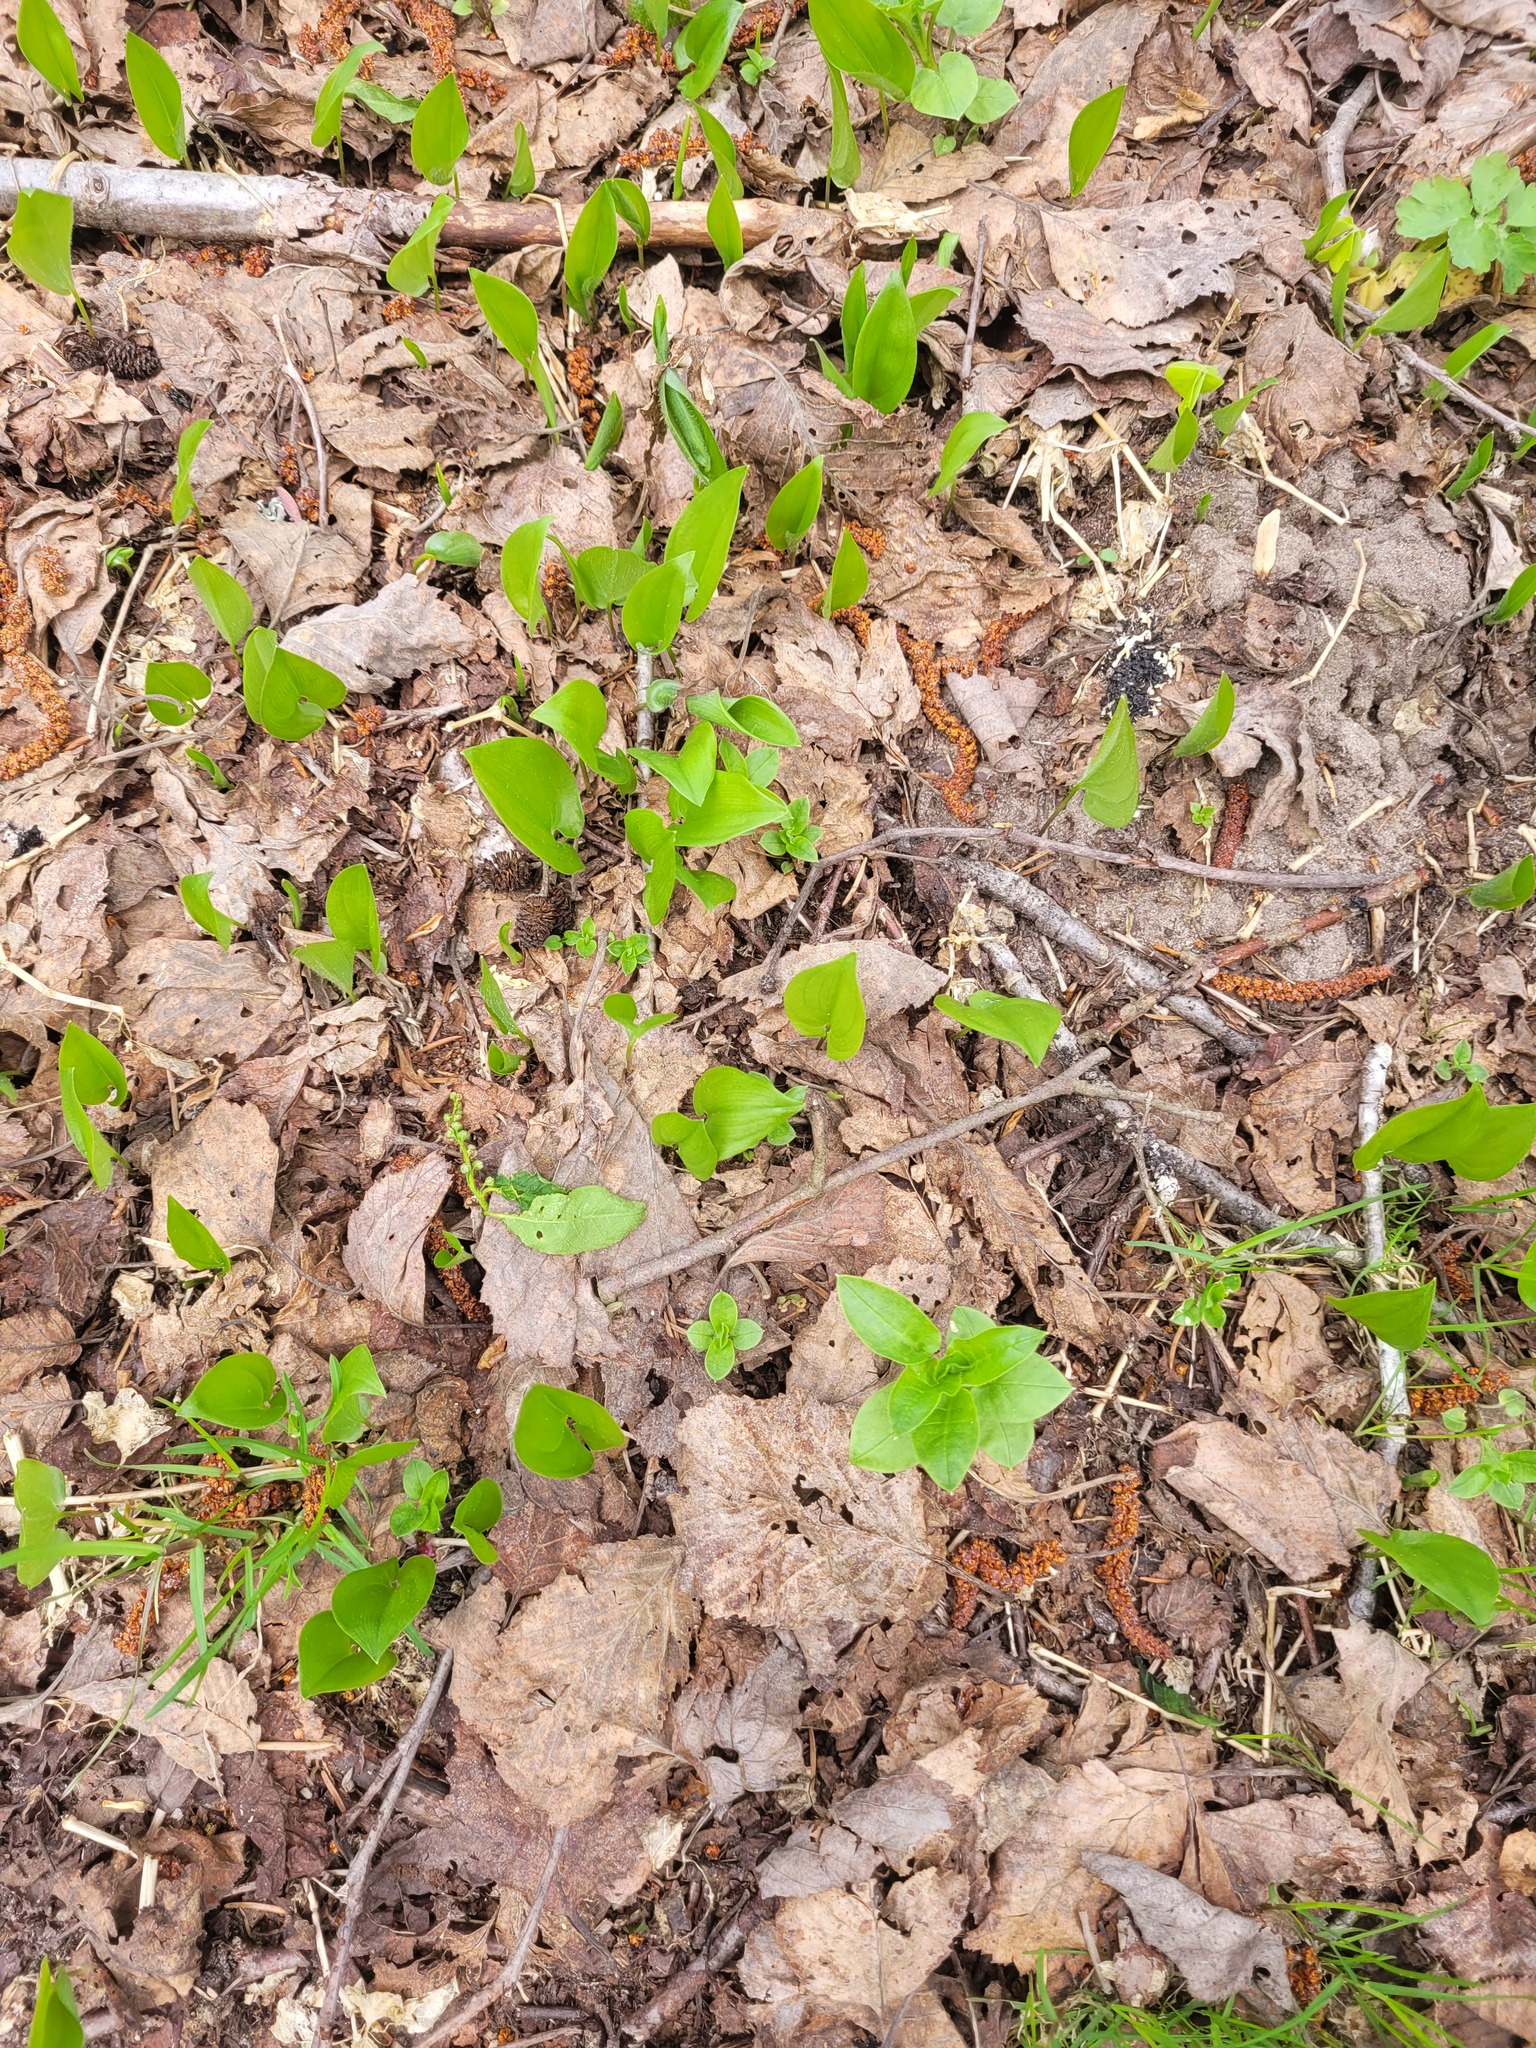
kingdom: Plantae
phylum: Tracheophyta
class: Liliopsida
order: Asparagales
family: Asparagaceae
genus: Maianthemum
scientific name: Maianthemum bifolium
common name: May lily
